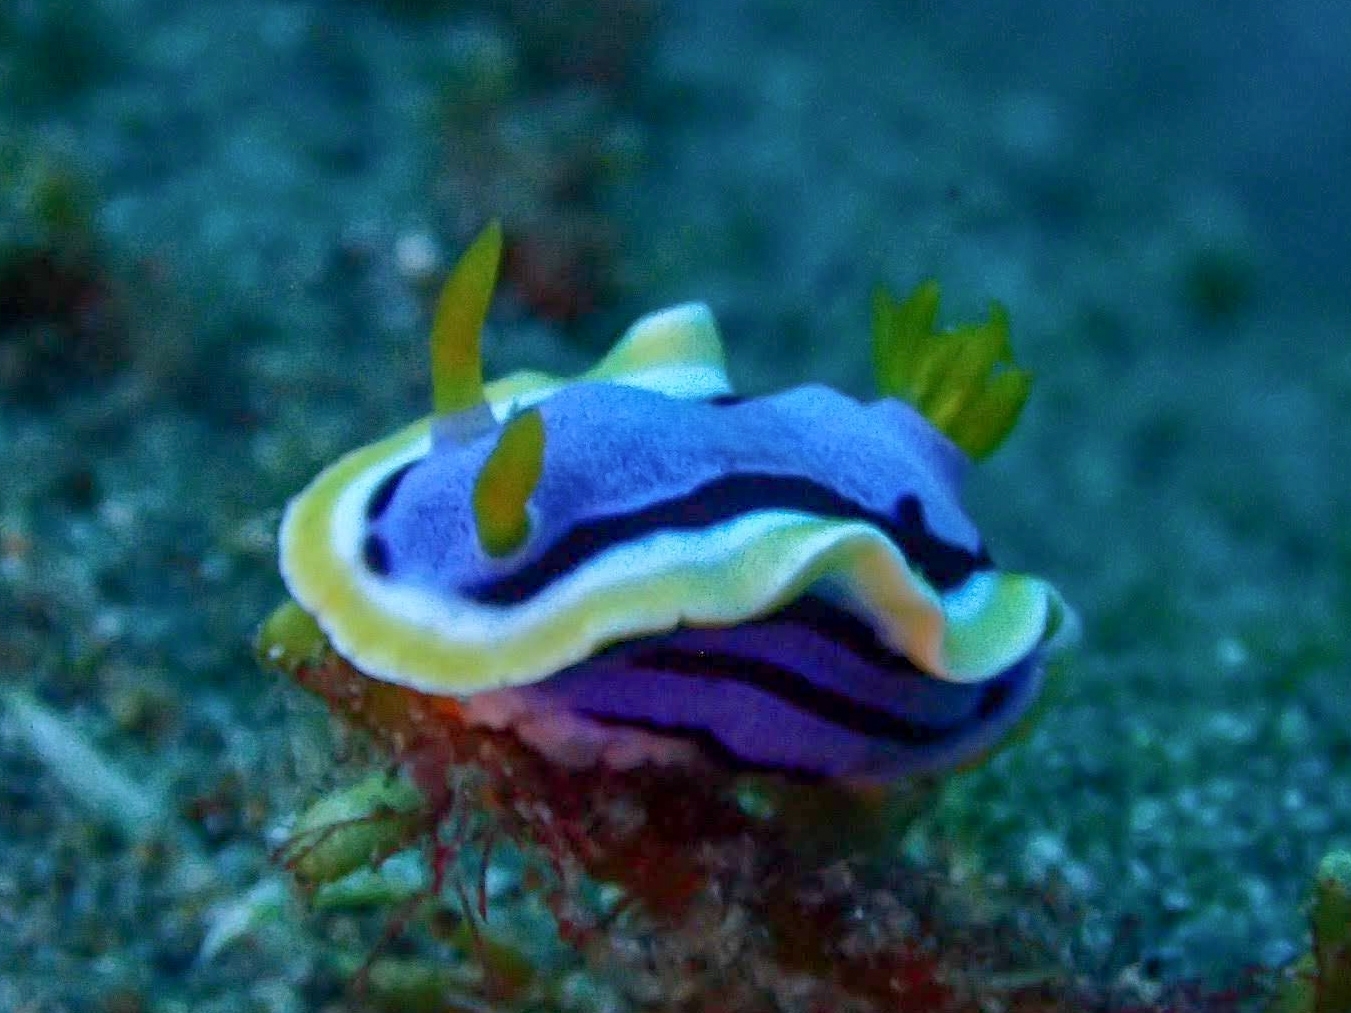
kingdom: Animalia
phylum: Mollusca
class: Gastropoda
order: Nudibranchia
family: Chromodorididae
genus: Chromodoris
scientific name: Chromodoris annae
